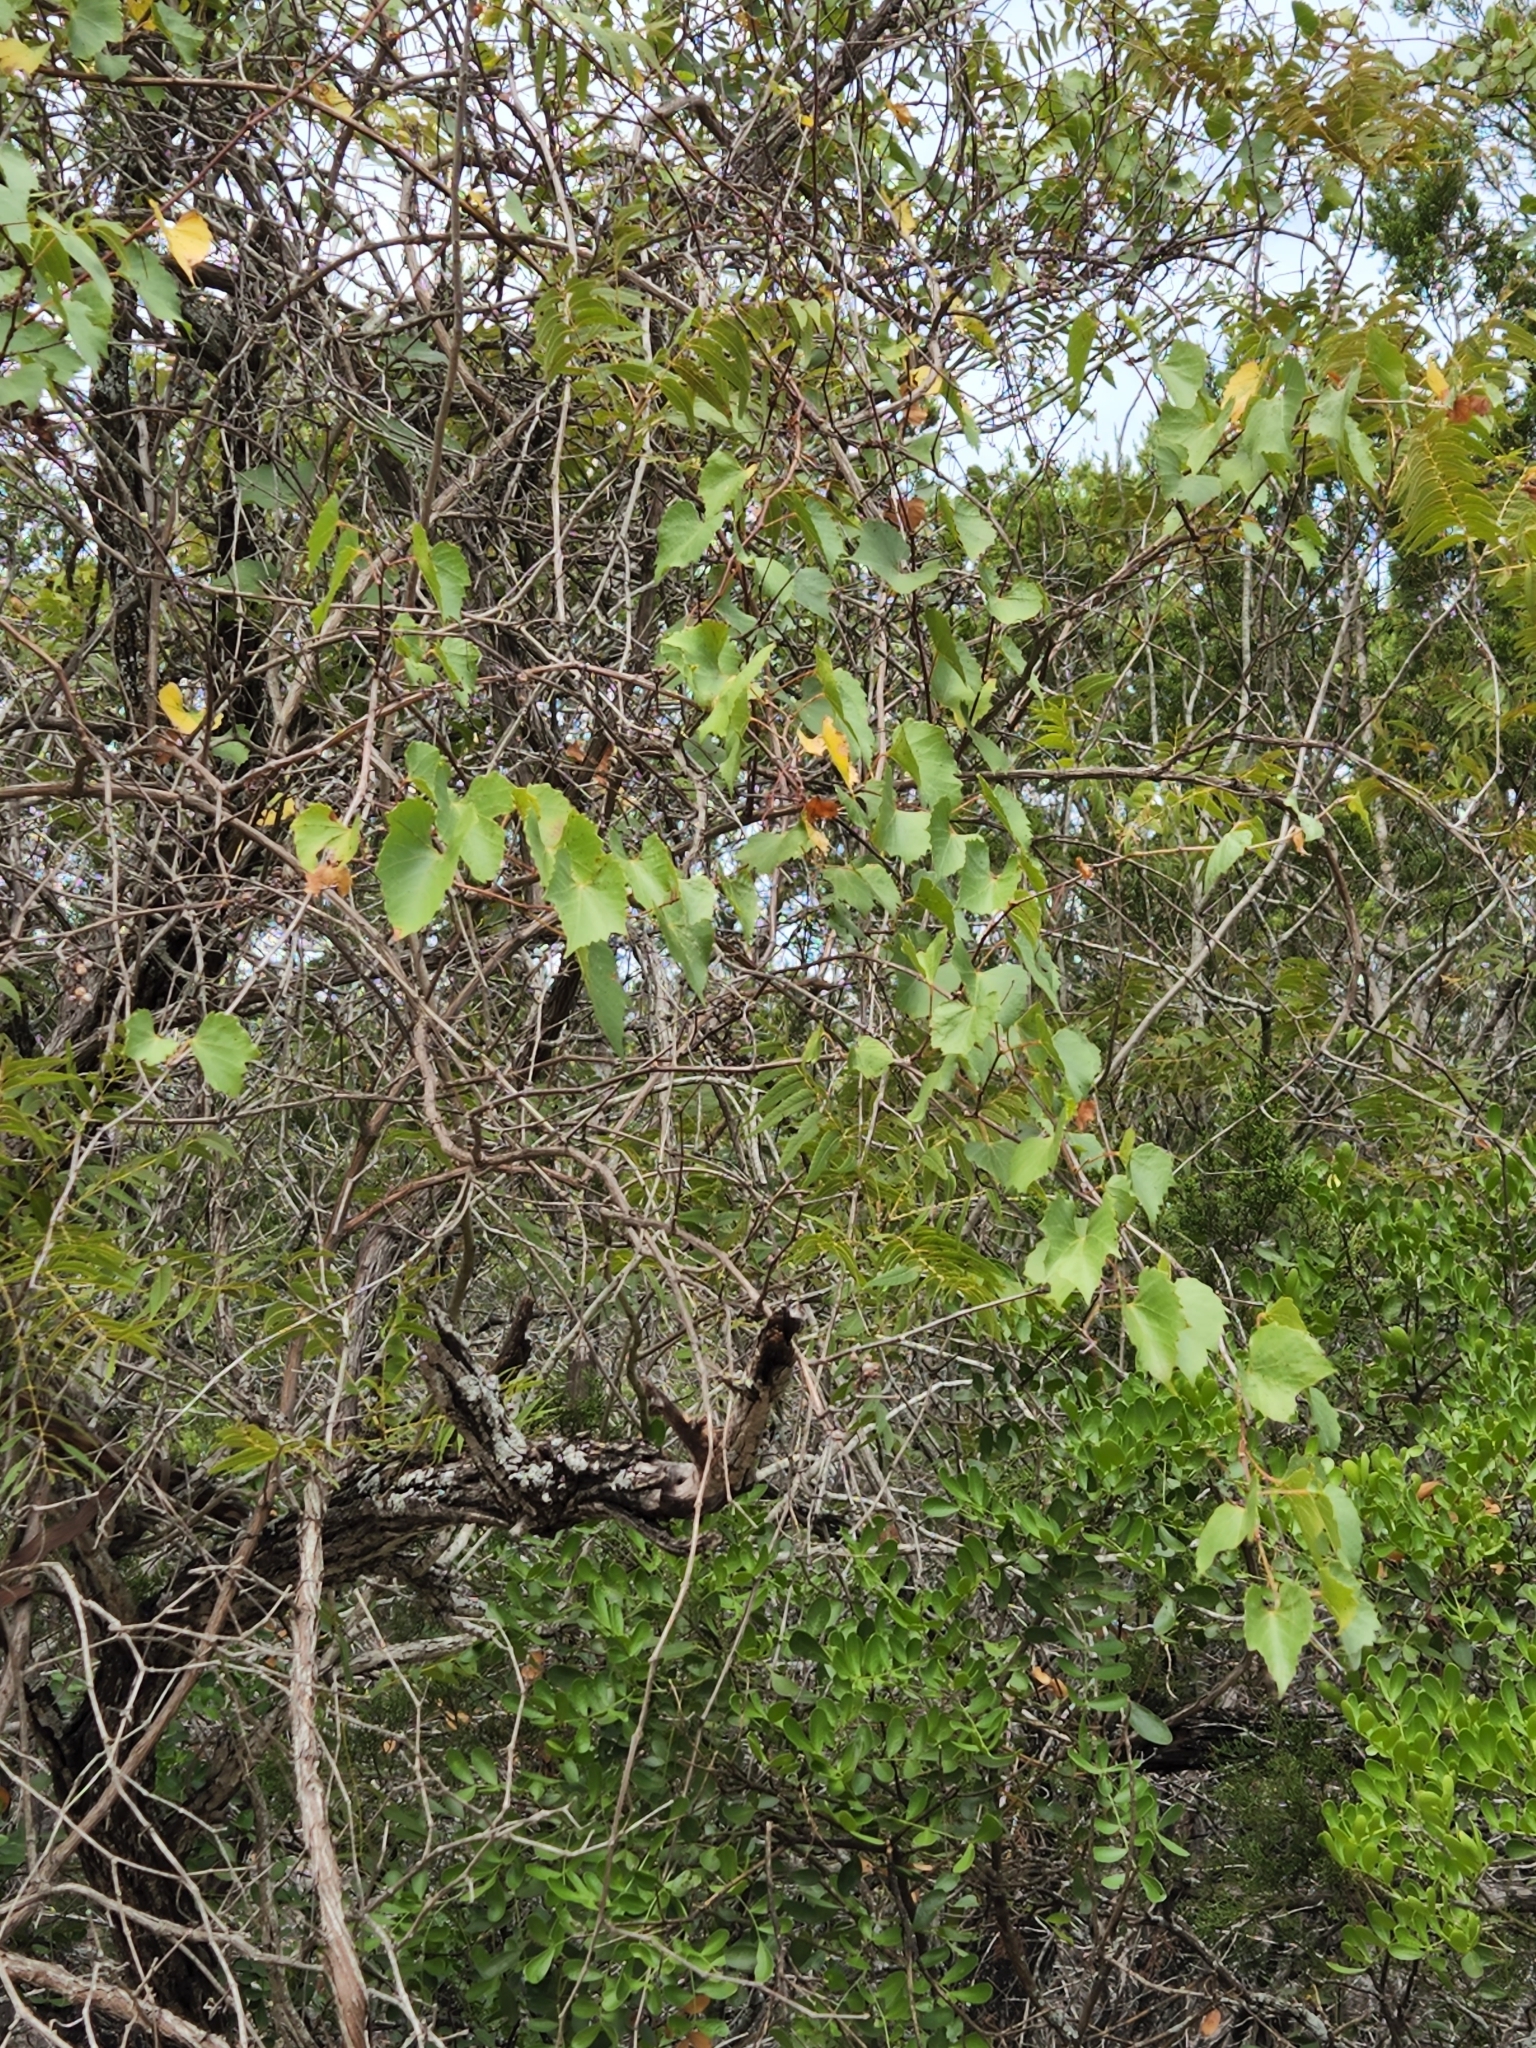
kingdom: Plantae
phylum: Tracheophyta
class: Magnoliopsida
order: Vitales
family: Vitaceae
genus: Vitis
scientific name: Vitis monticola
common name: Mountain grape
